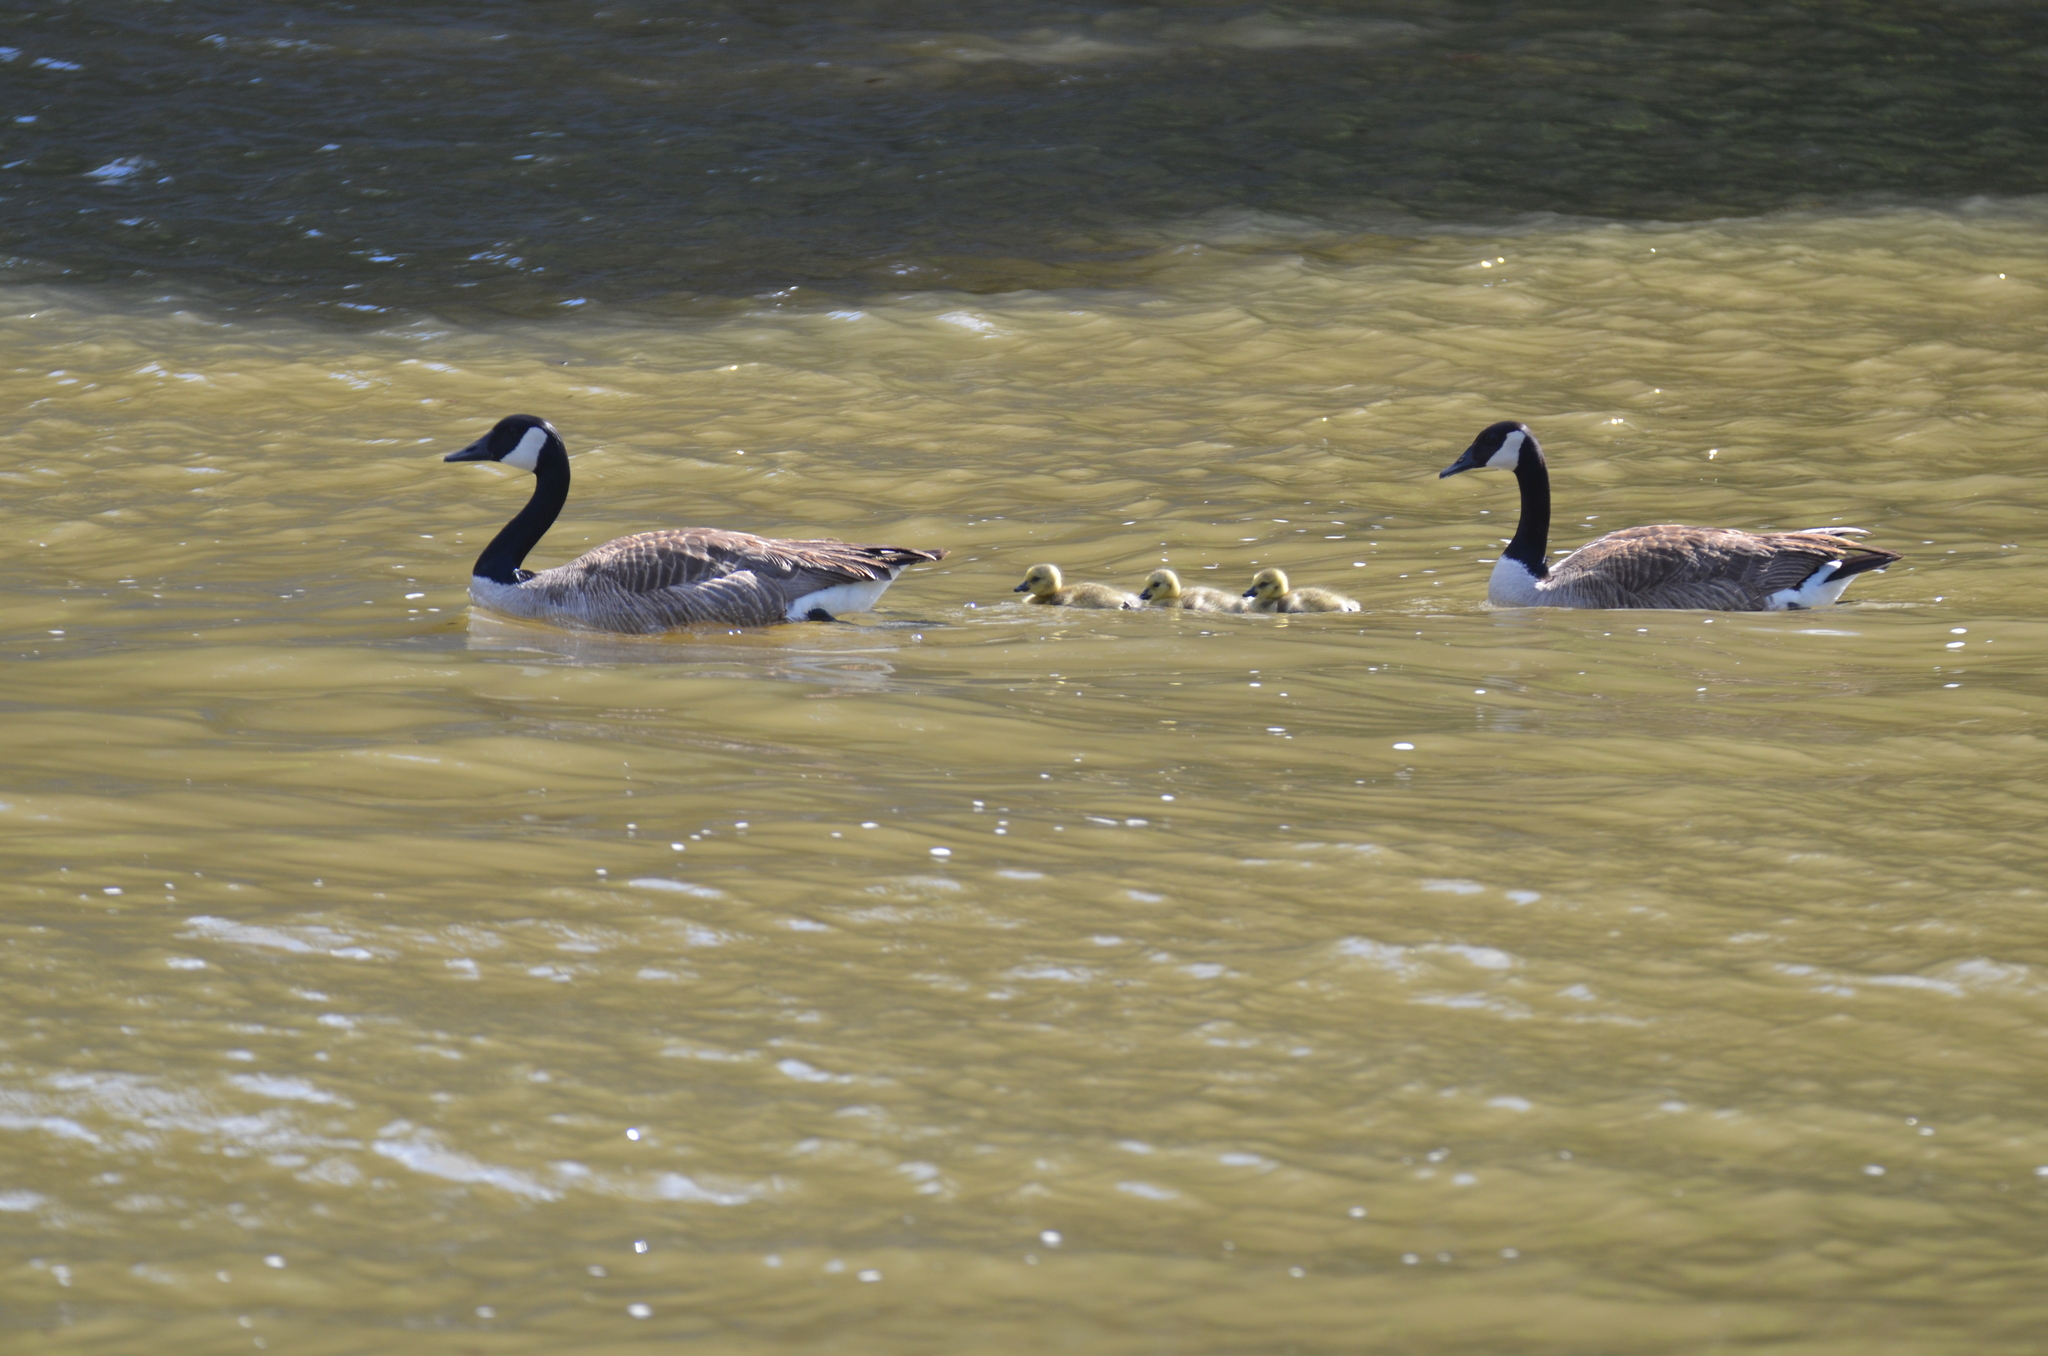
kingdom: Animalia
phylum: Chordata
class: Aves
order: Anseriformes
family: Anatidae
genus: Branta
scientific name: Branta canadensis
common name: Canada goose
